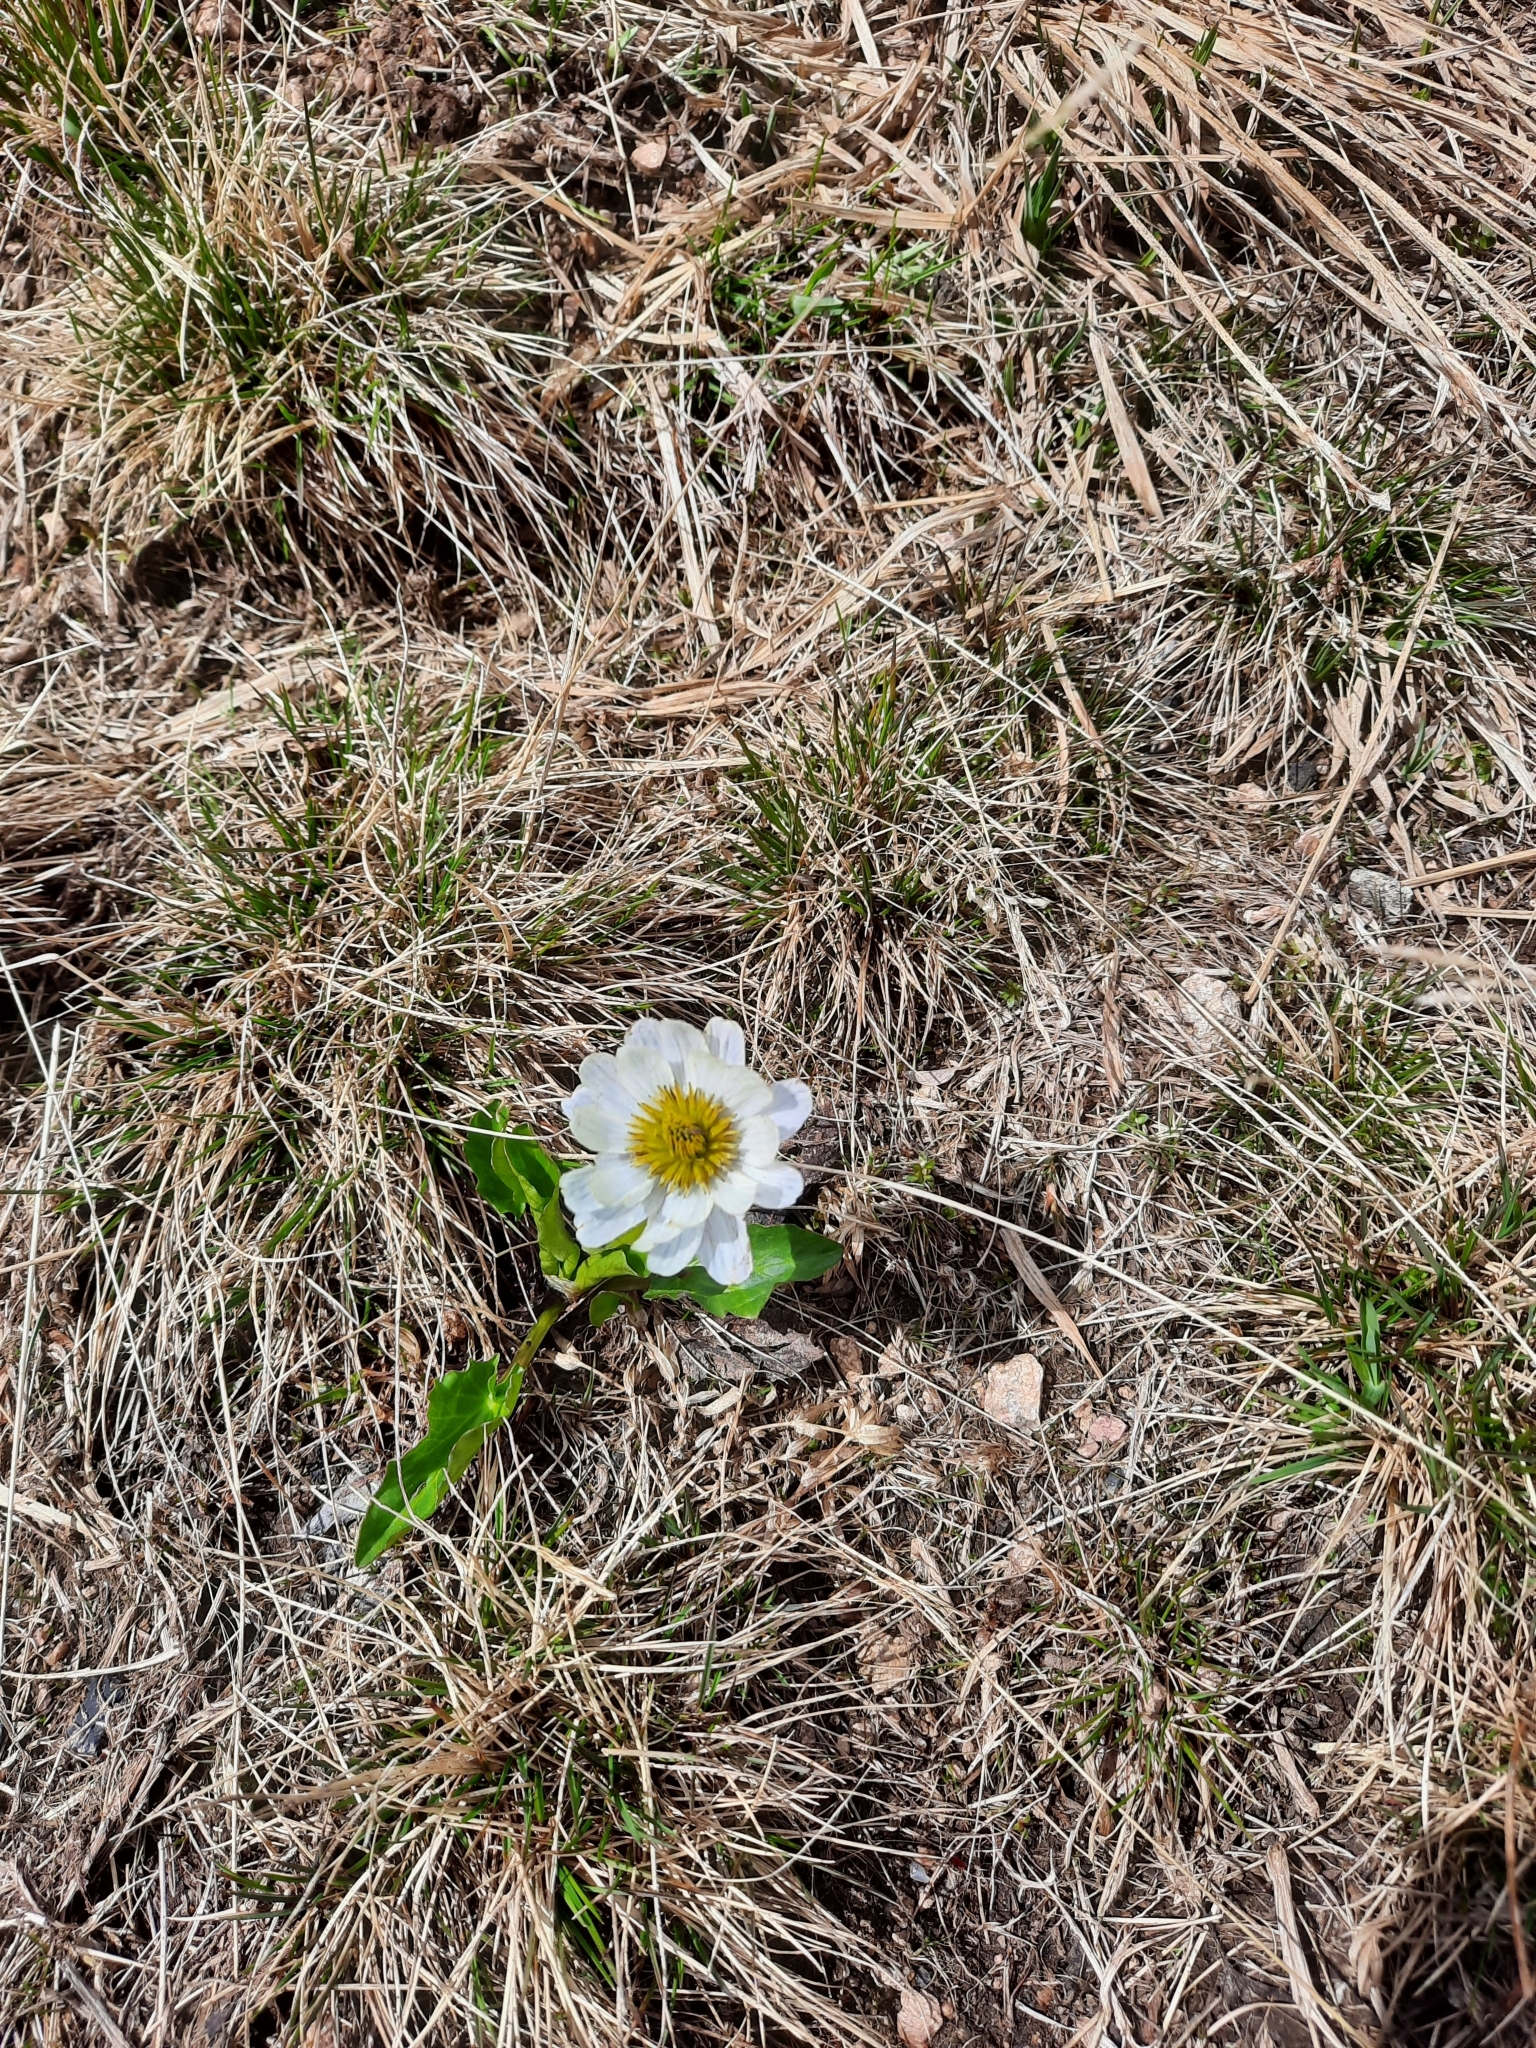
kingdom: Plantae
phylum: Tracheophyta
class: Magnoliopsida
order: Ranunculales
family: Ranunculaceae
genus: Caltha
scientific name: Caltha leptosepala
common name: Elkslip
